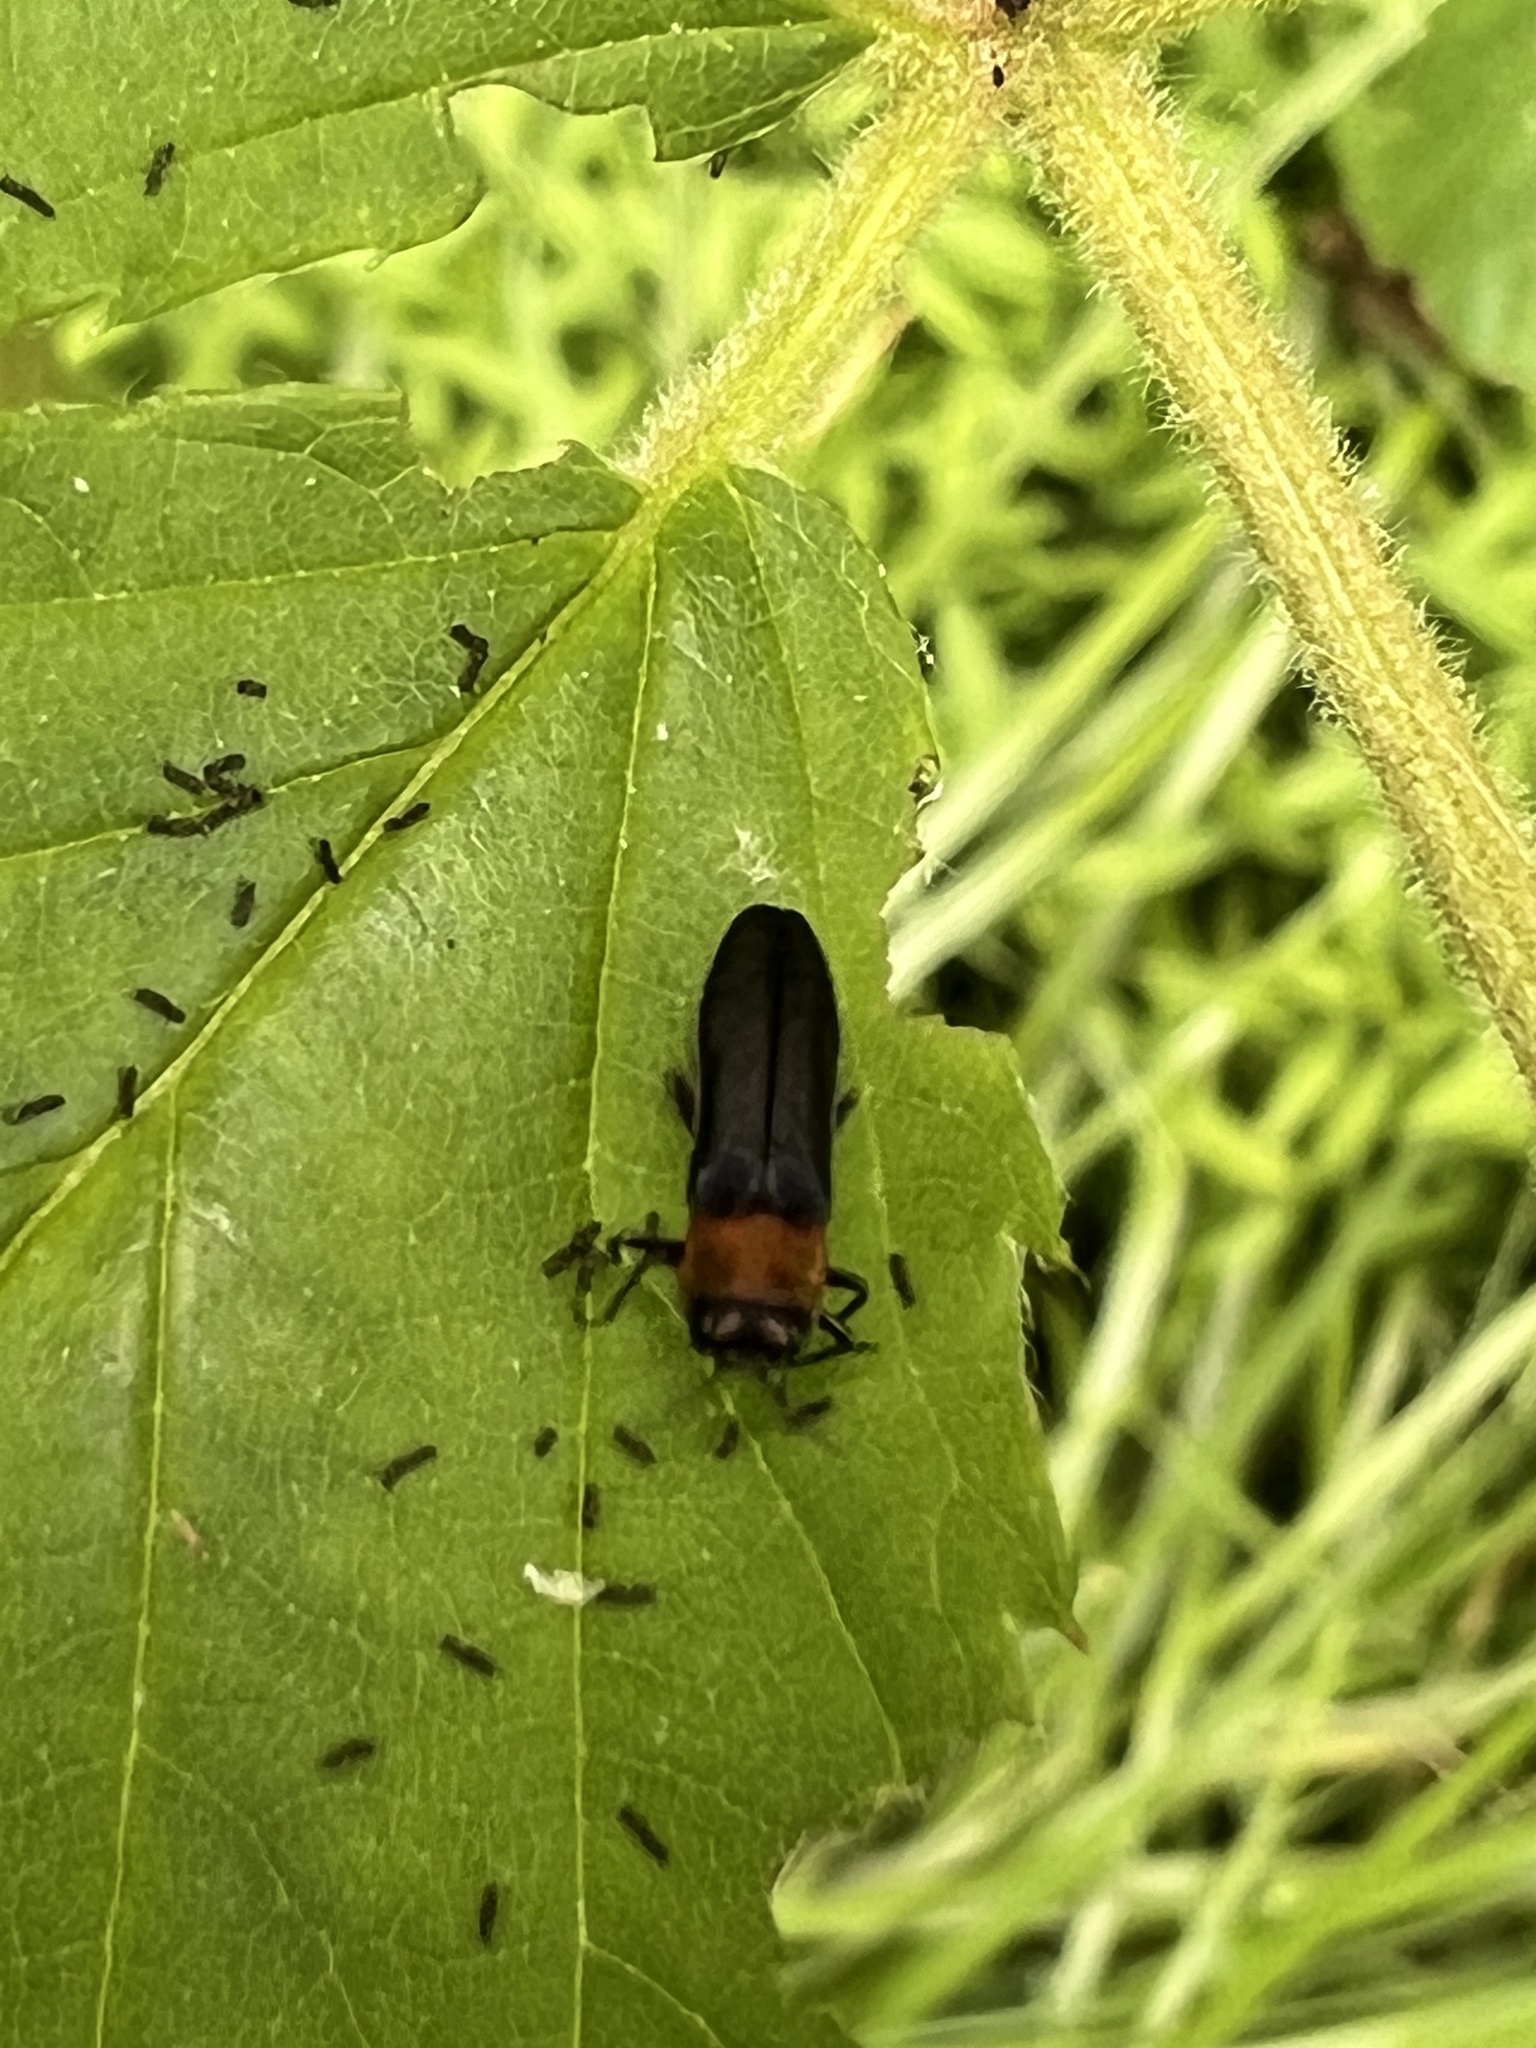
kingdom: Animalia
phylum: Arthropoda
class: Insecta
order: Coleoptera
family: Buprestidae
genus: Agrilus
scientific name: Agrilus ruficollis
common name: Red-necked cane borer beetle
